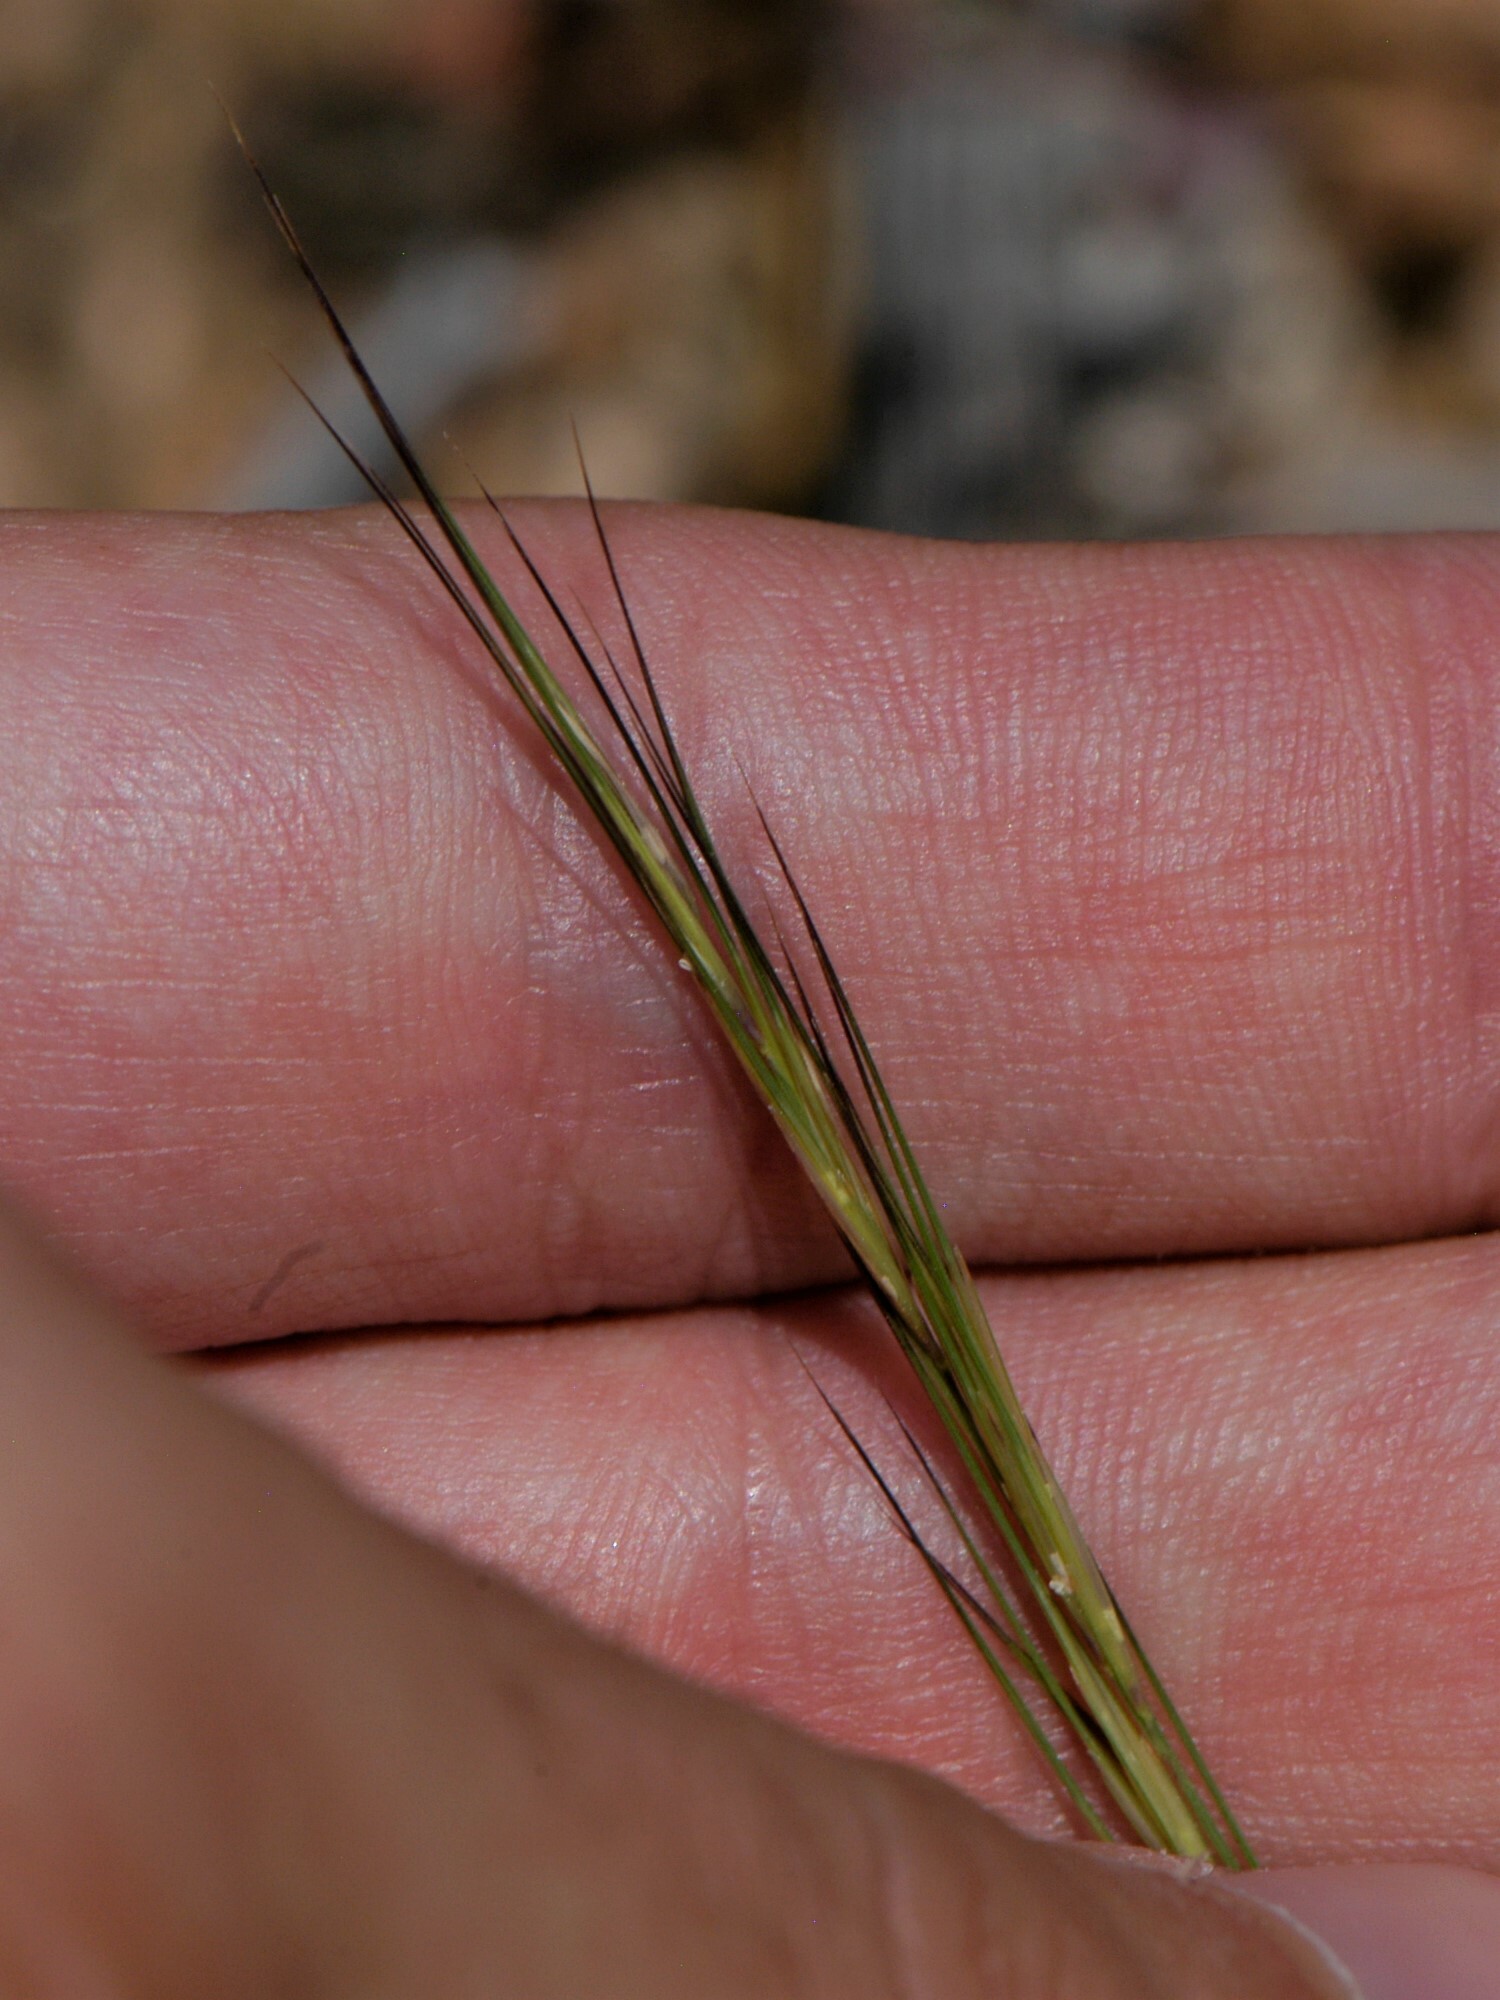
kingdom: Plantae
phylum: Tracheophyta
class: Liliopsida
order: Poales
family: Poaceae
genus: Aristida
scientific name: Aristida adscensionis
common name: Sixweeks threeawn
